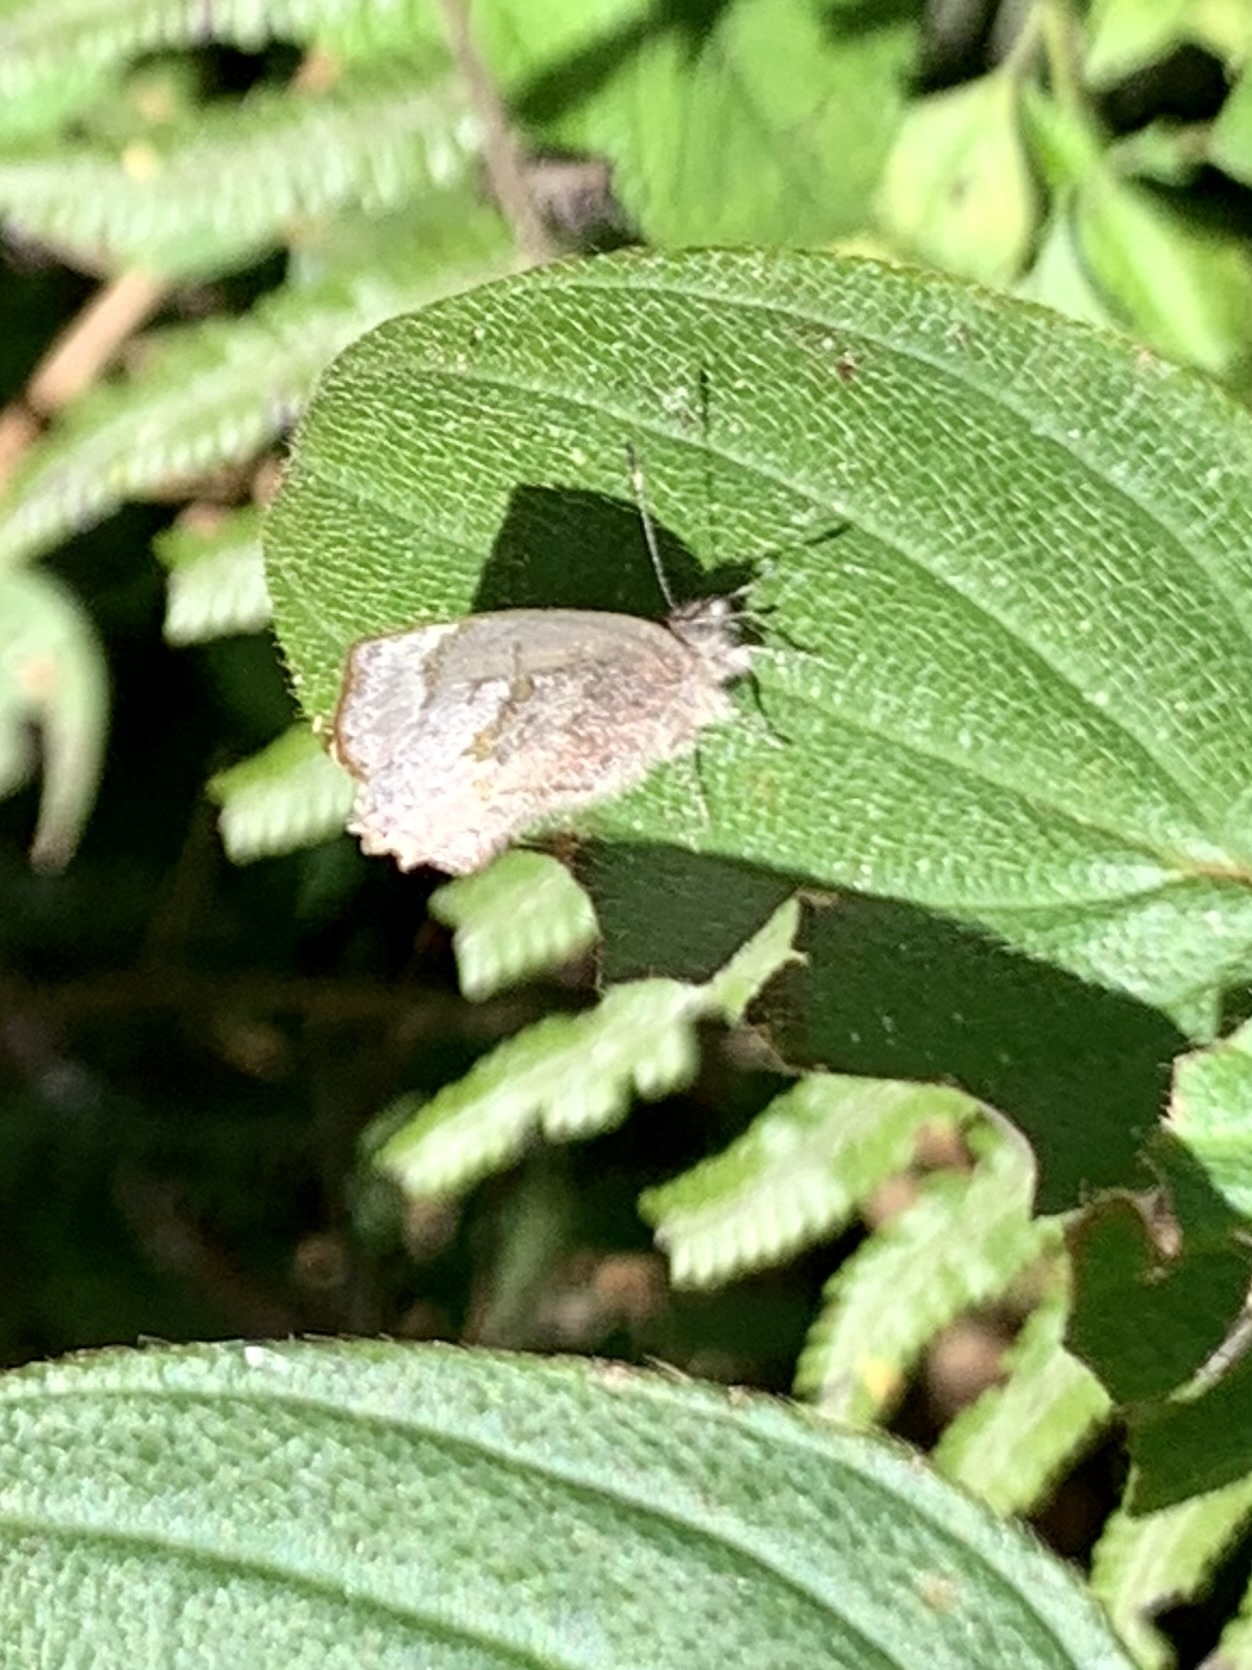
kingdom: Animalia
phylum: Arthropoda
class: Insecta
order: Lepidoptera
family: Lycaenidae
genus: Thecla
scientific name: Thecla arria
